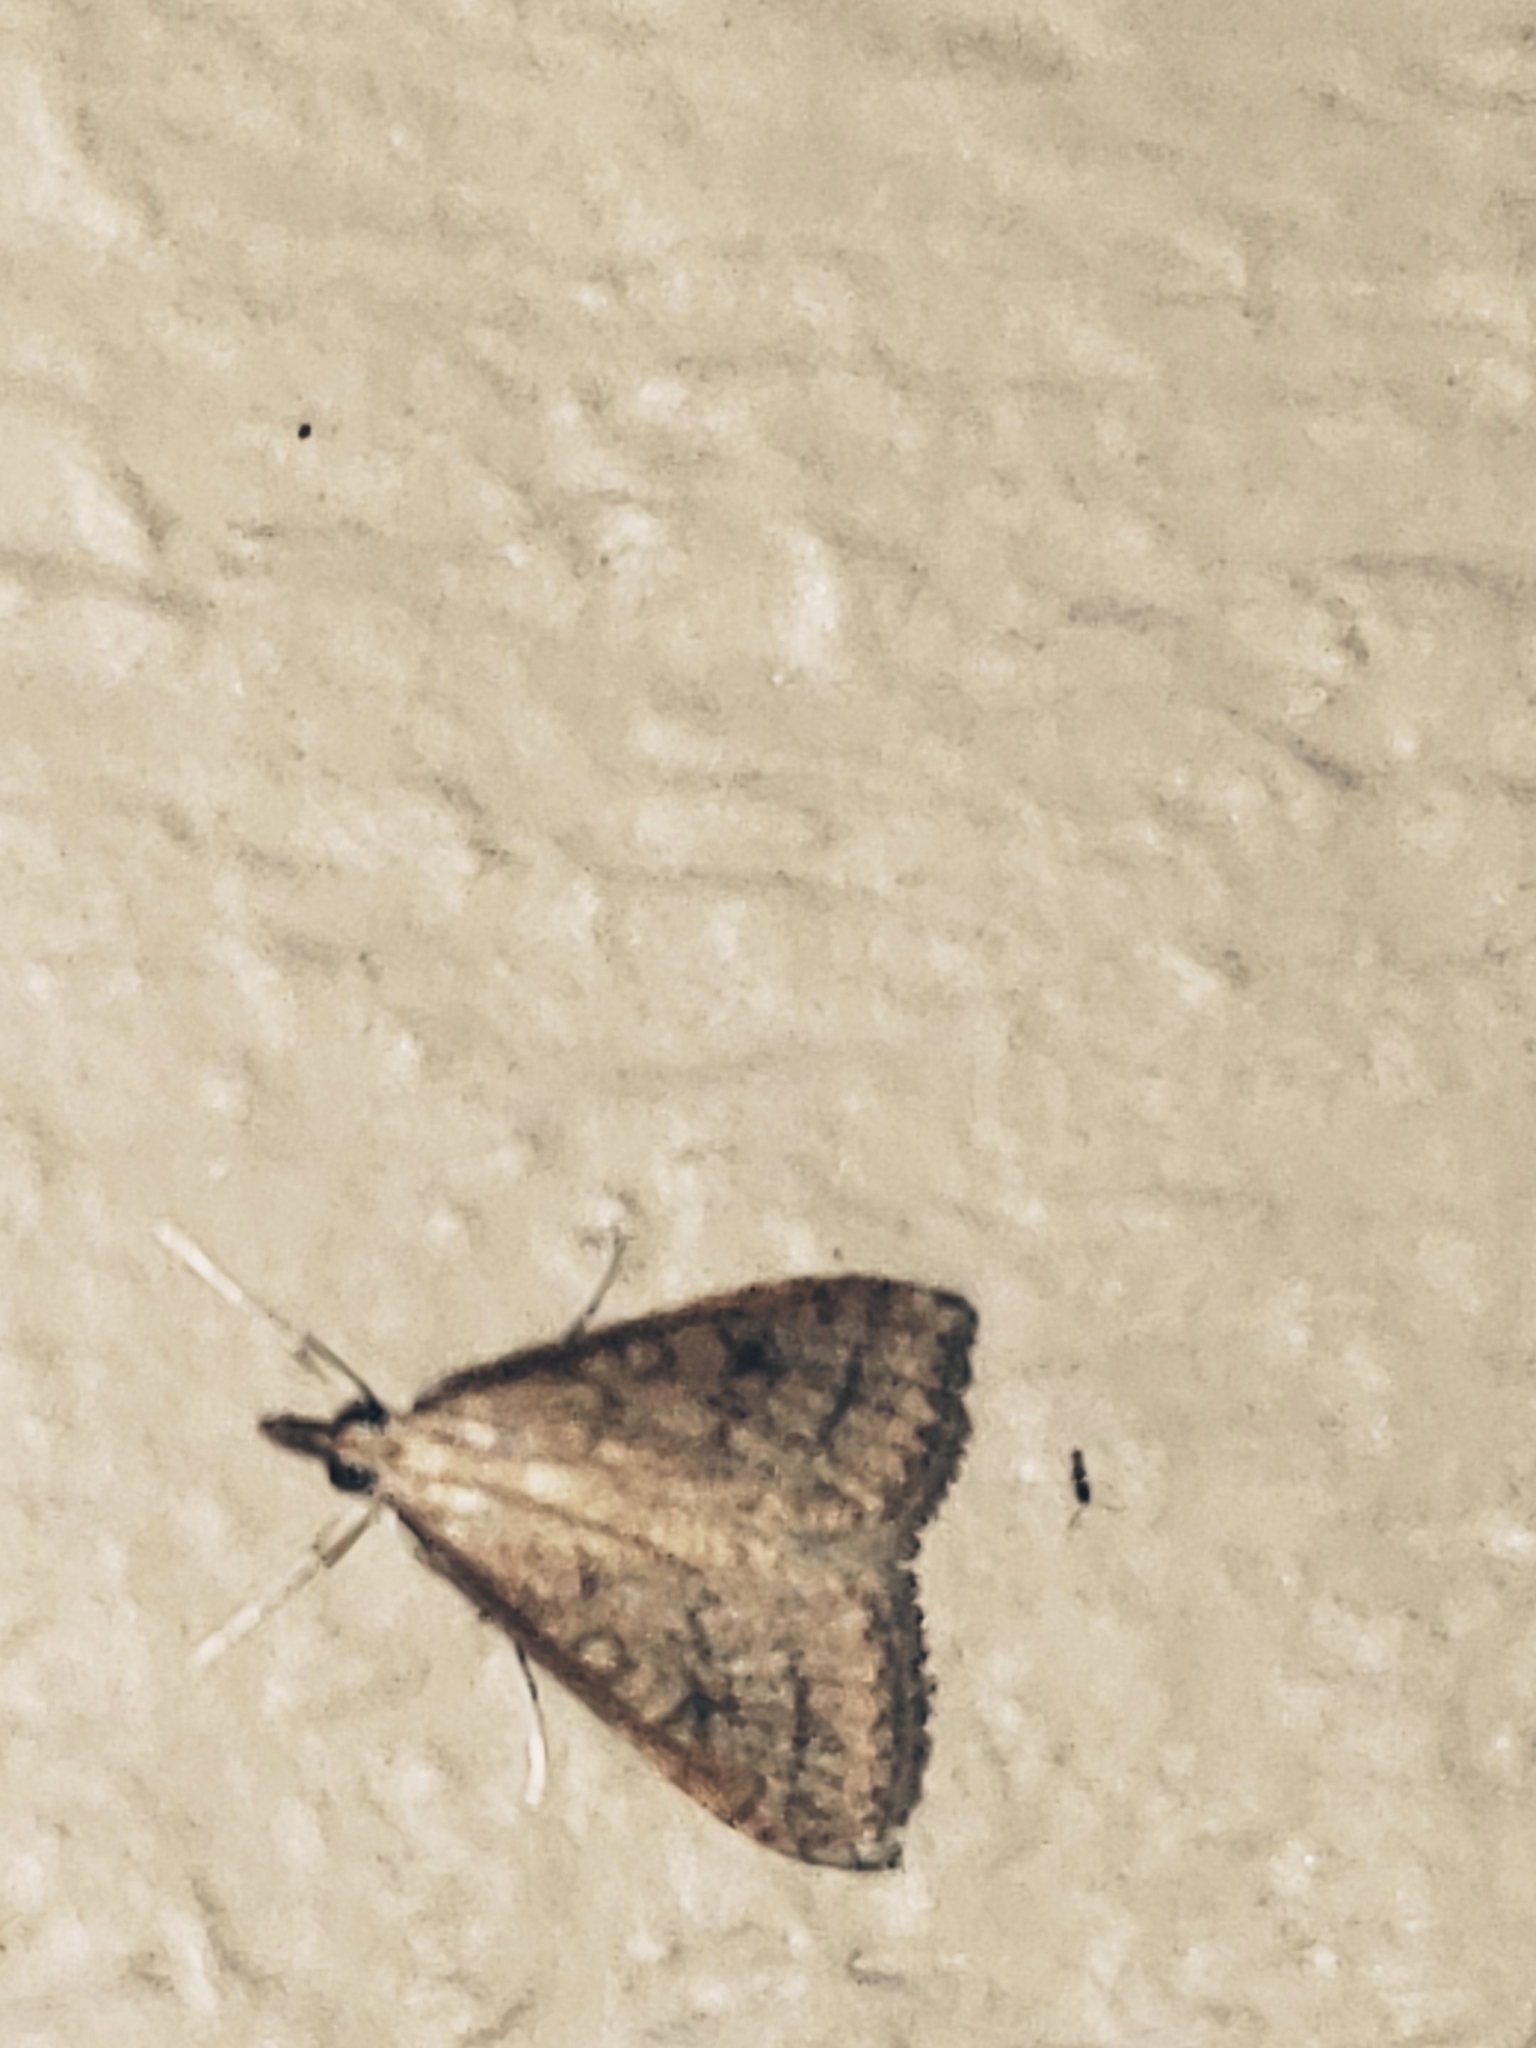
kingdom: Animalia
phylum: Arthropoda
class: Insecta
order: Lepidoptera
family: Crambidae
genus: Udea
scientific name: Udea rubigalis
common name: Celery leaftier moth
